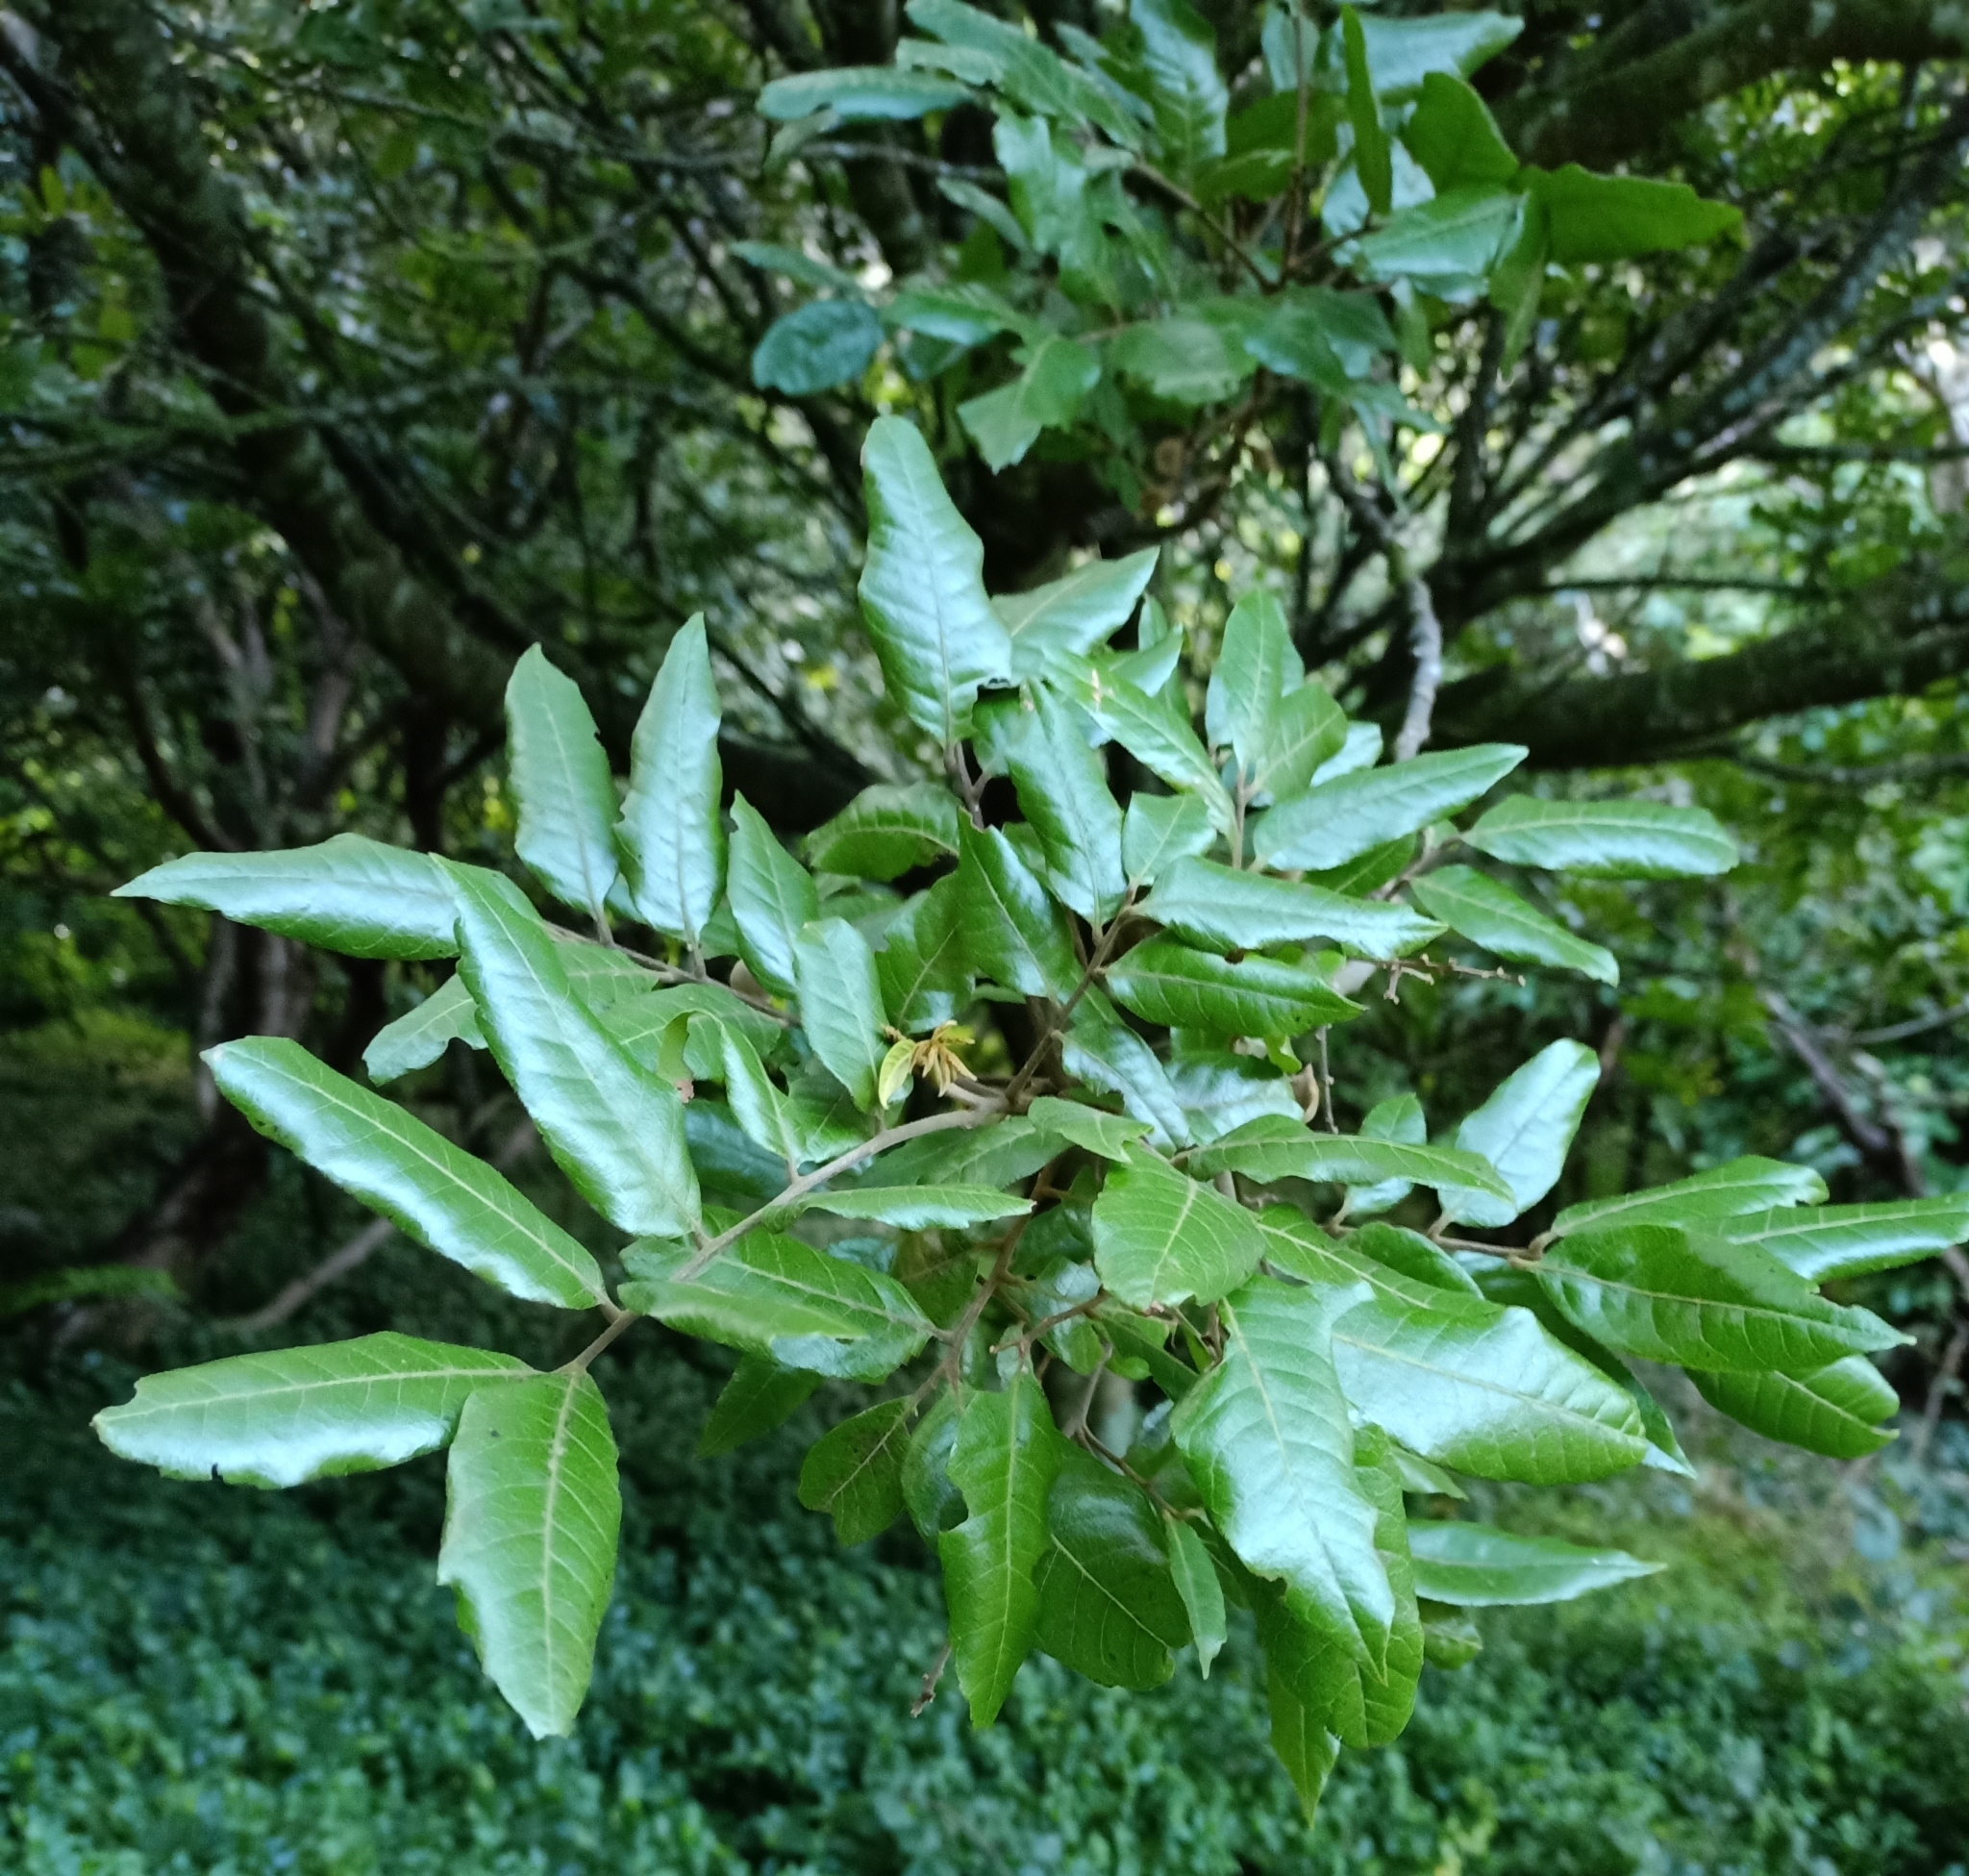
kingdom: Plantae
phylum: Tracheophyta
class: Magnoliopsida
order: Sapindales
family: Sapindaceae
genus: Alectryon
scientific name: Alectryon excelsus
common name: Three kings titoki
